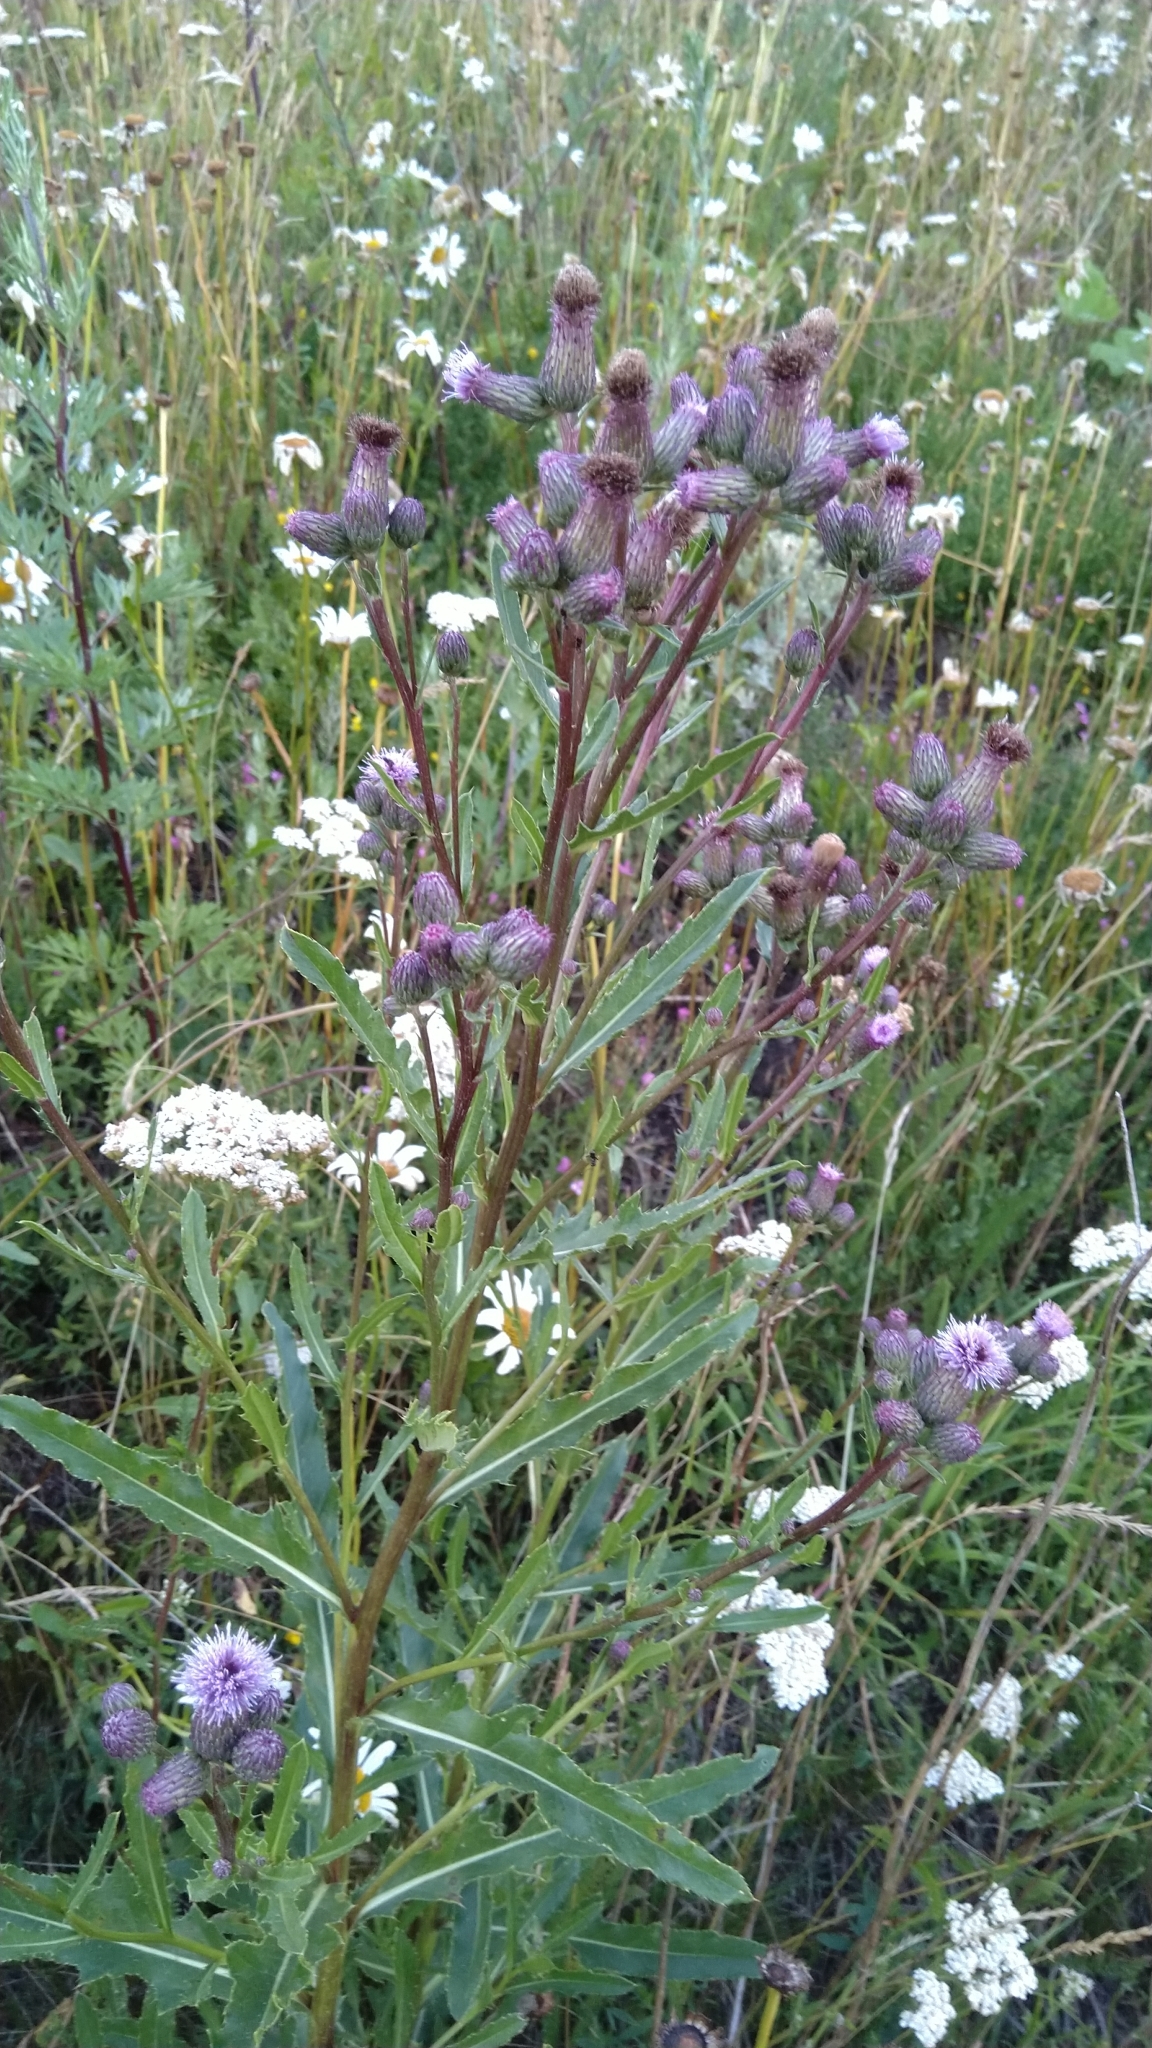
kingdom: Plantae
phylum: Tracheophyta
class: Magnoliopsida
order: Asterales
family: Asteraceae
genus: Cirsium
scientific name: Cirsium arvense
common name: Creeping thistle
